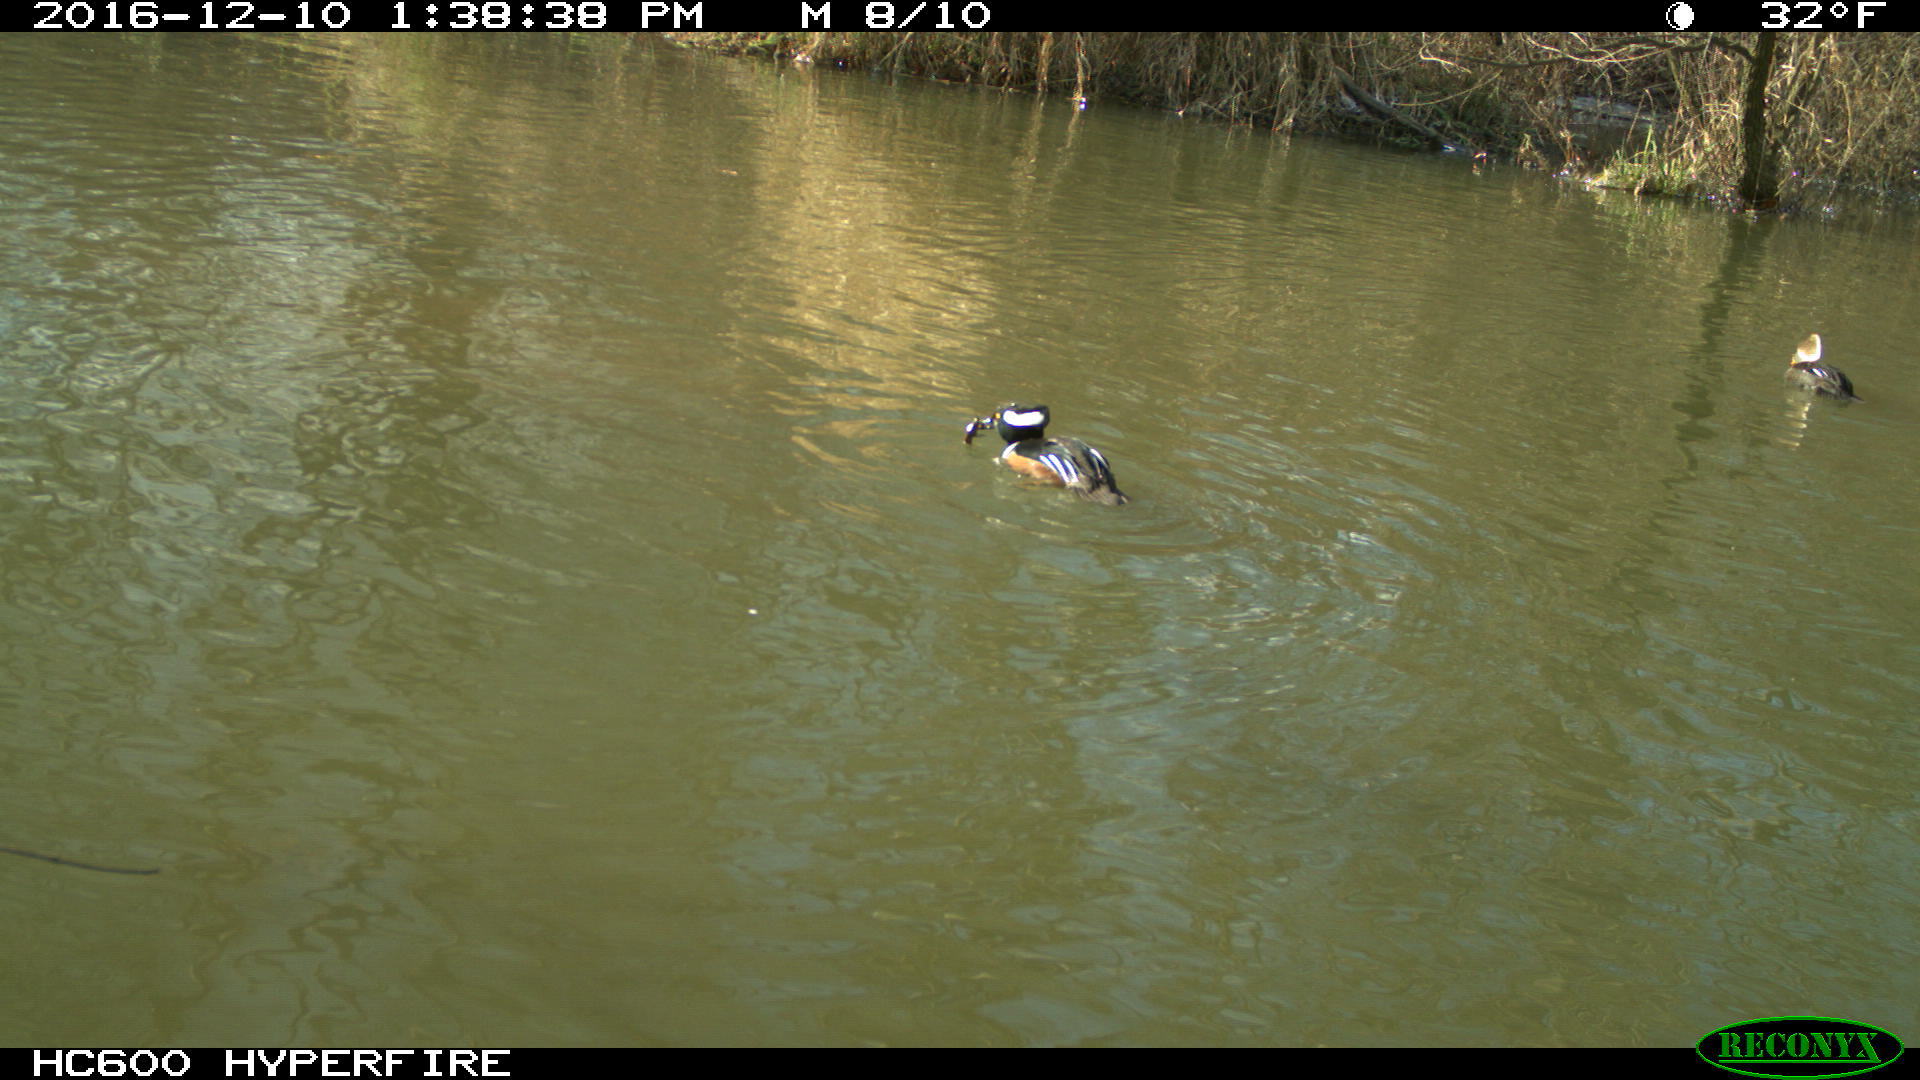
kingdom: Animalia
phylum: Chordata
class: Aves
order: Anseriformes
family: Anatidae
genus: Lophodytes
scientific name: Lophodytes cucullatus
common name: Hooded merganser
